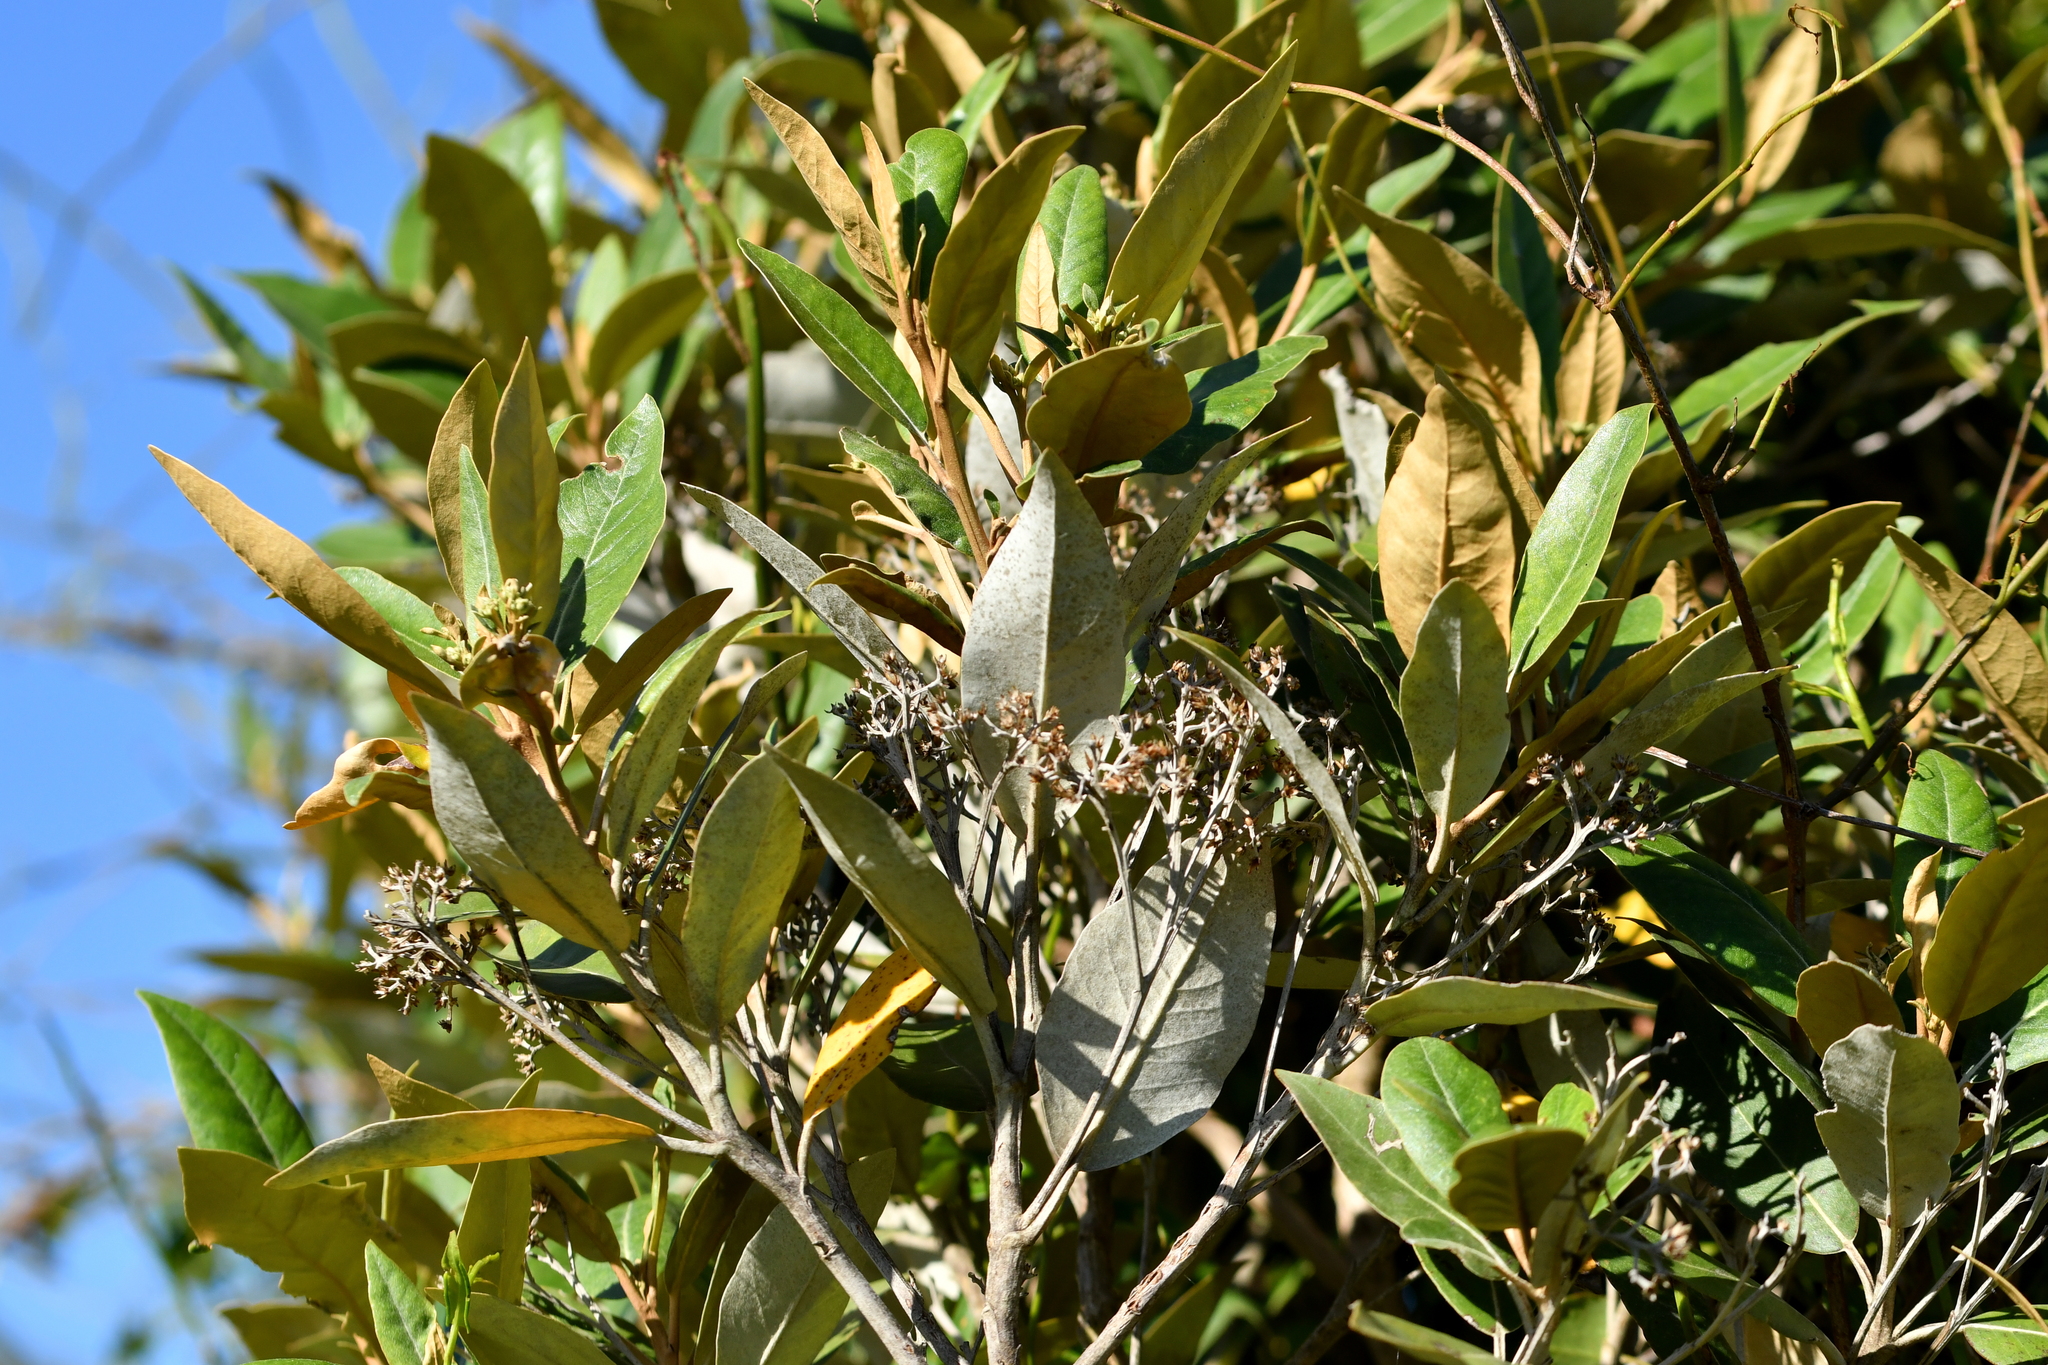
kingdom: Plantae
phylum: Tracheophyta
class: Magnoliopsida
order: Asterales
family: Asteraceae
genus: Olearia
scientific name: Olearia avicenniifolia
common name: Mangrove-leaf daisybush
